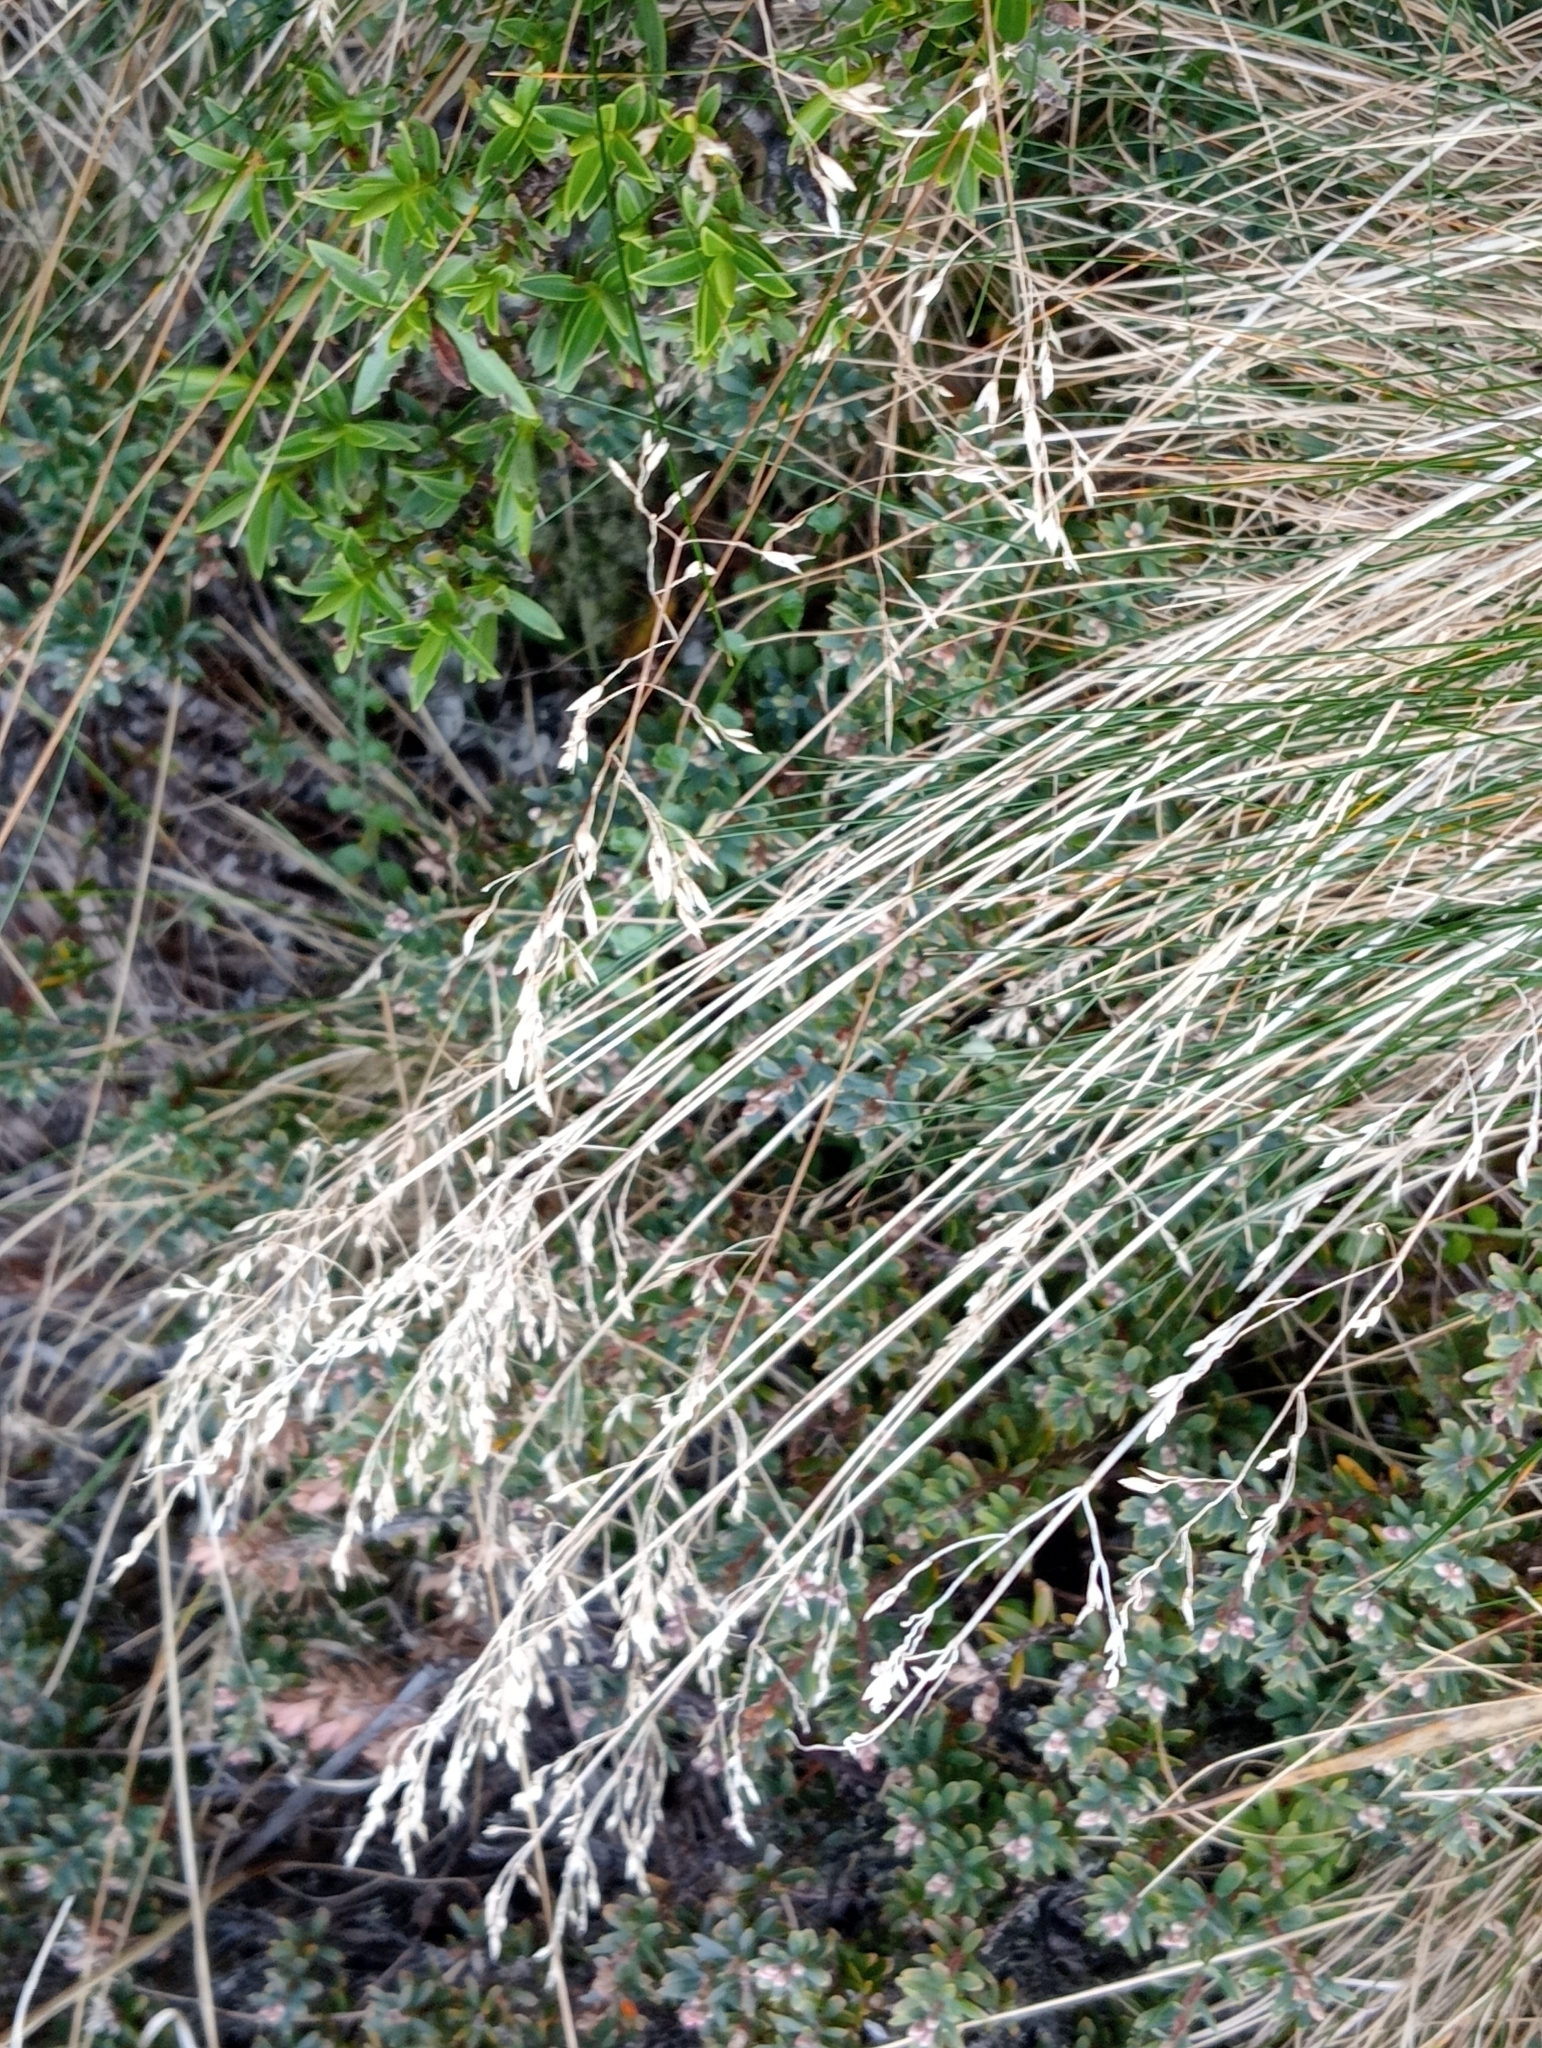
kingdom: Plantae
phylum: Tracheophyta
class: Liliopsida
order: Poales
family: Poaceae
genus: Poa
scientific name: Poa colensoi
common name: Blue tussock
